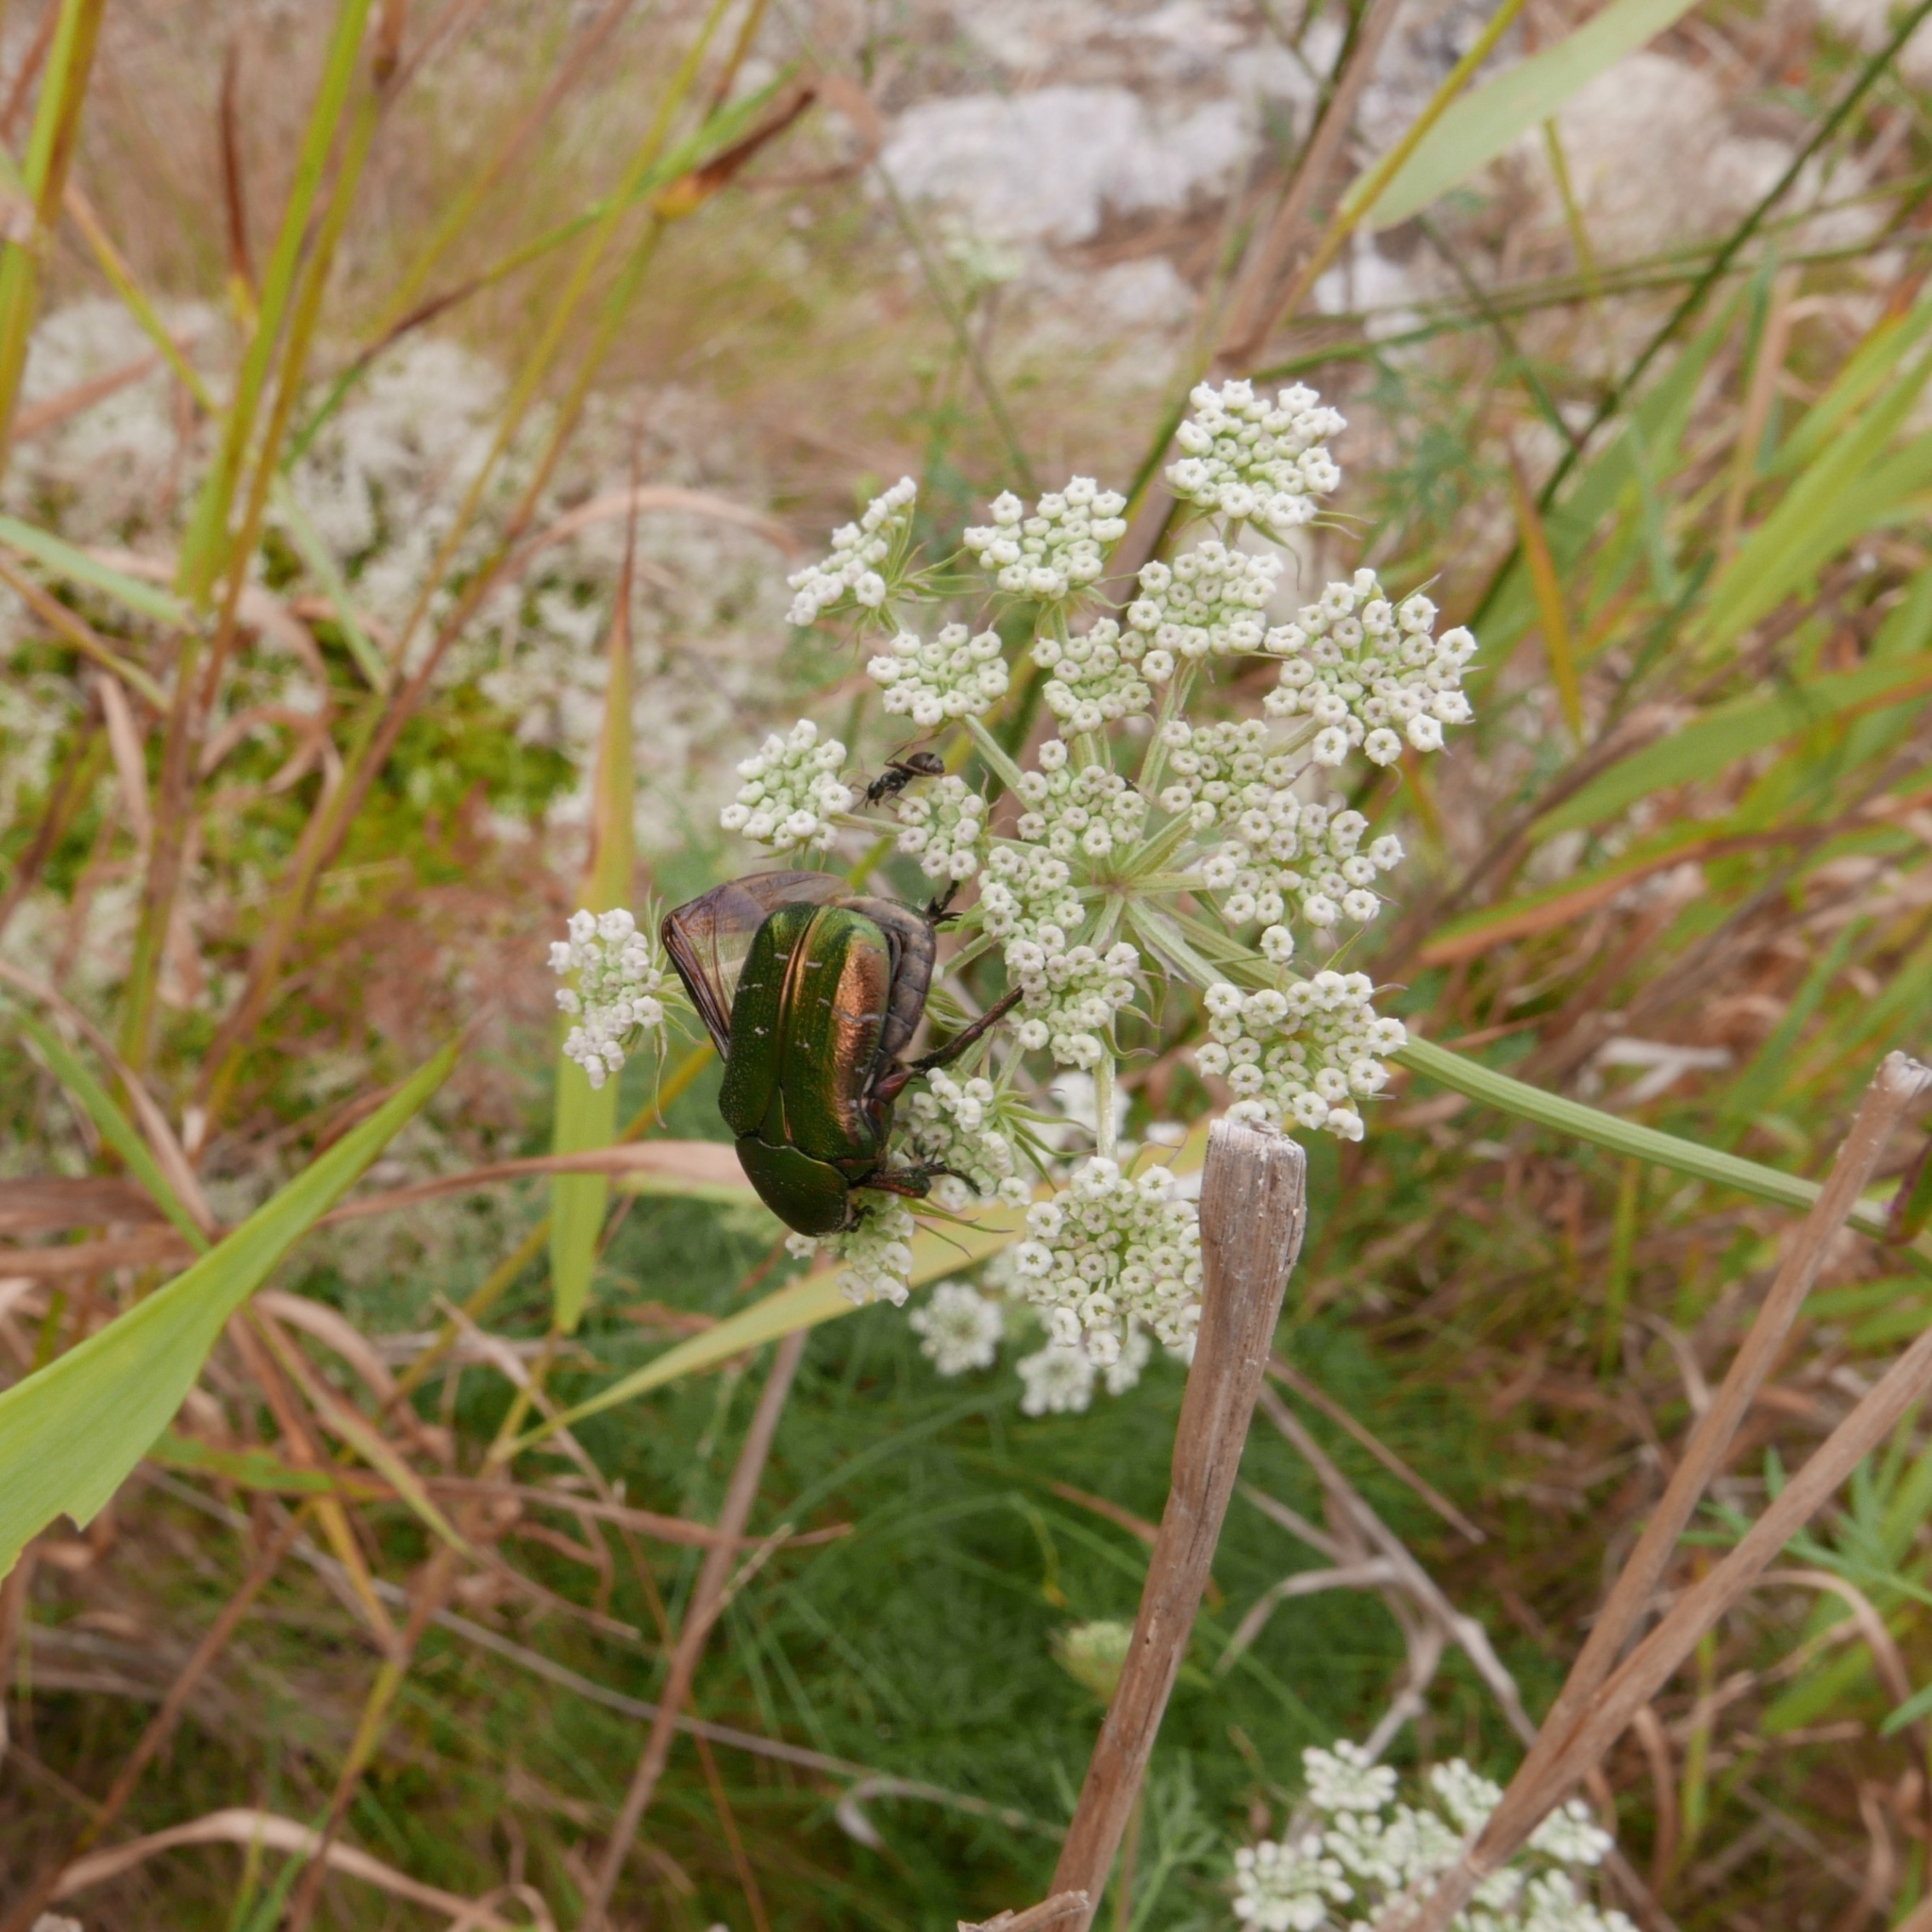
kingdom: Animalia
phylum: Arthropoda
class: Insecta
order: Coleoptera
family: Scarabaeidae
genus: Cetonia
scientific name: Cetonia aurata
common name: Rose chafer
